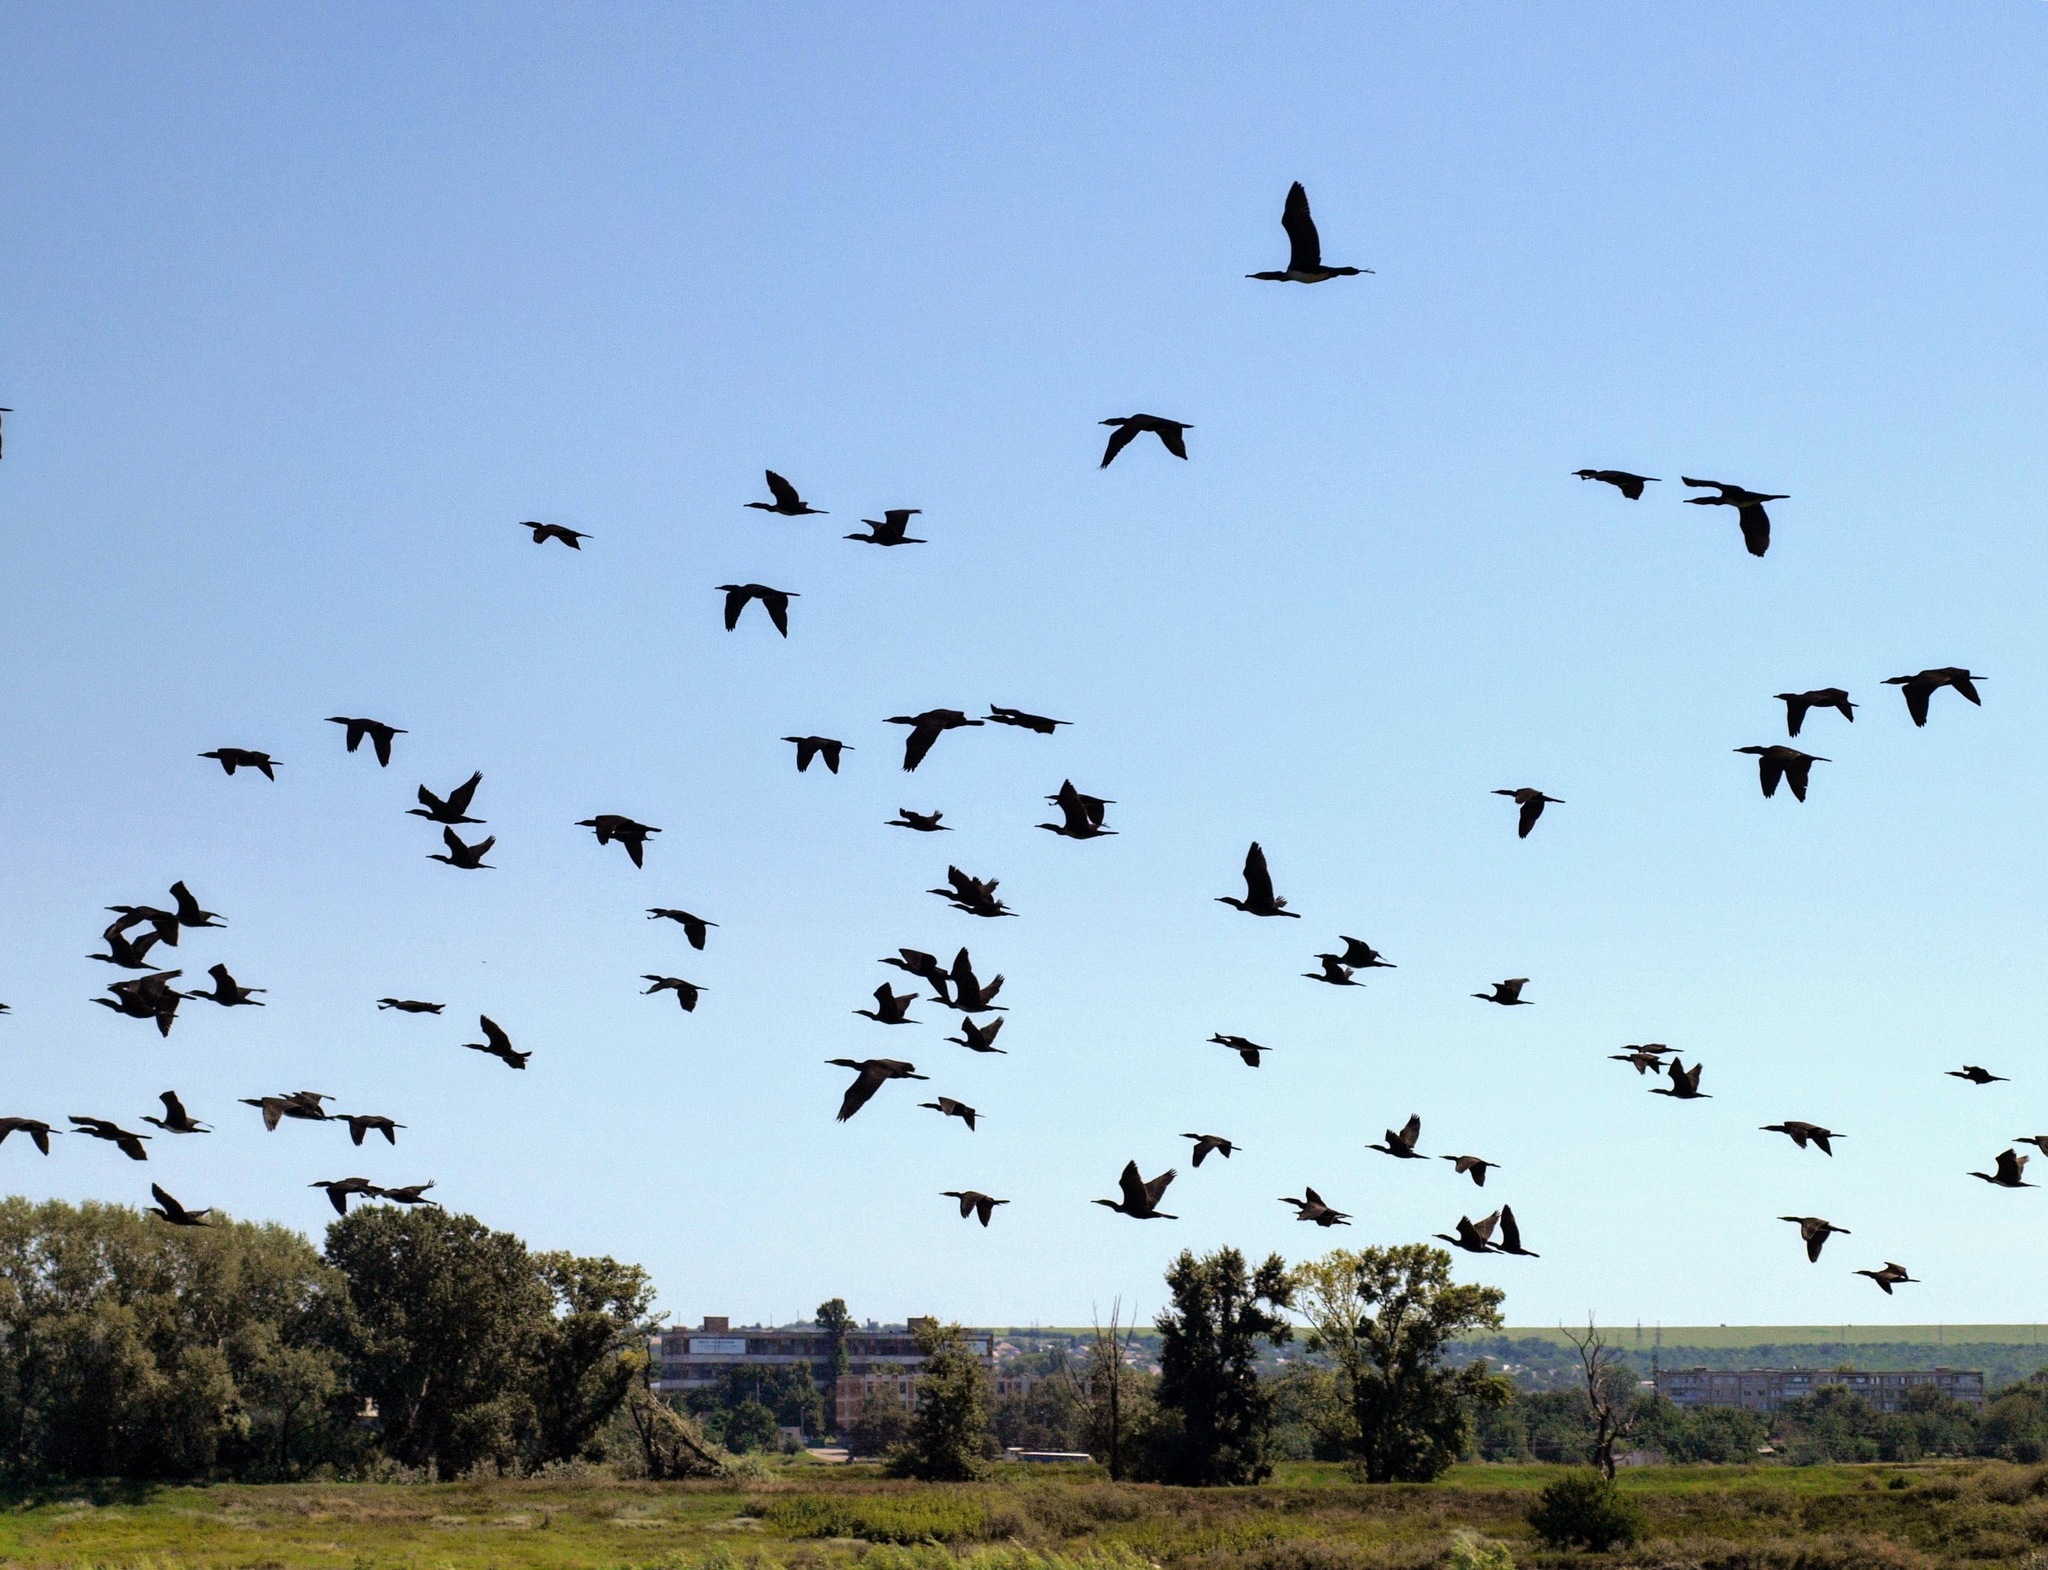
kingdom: Animalia
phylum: Chordata
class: Aves
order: Suliformes
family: Phalacrocoracidae
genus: Phalacrocorax
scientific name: Phalacrocorax carbo
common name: Great cormorant
